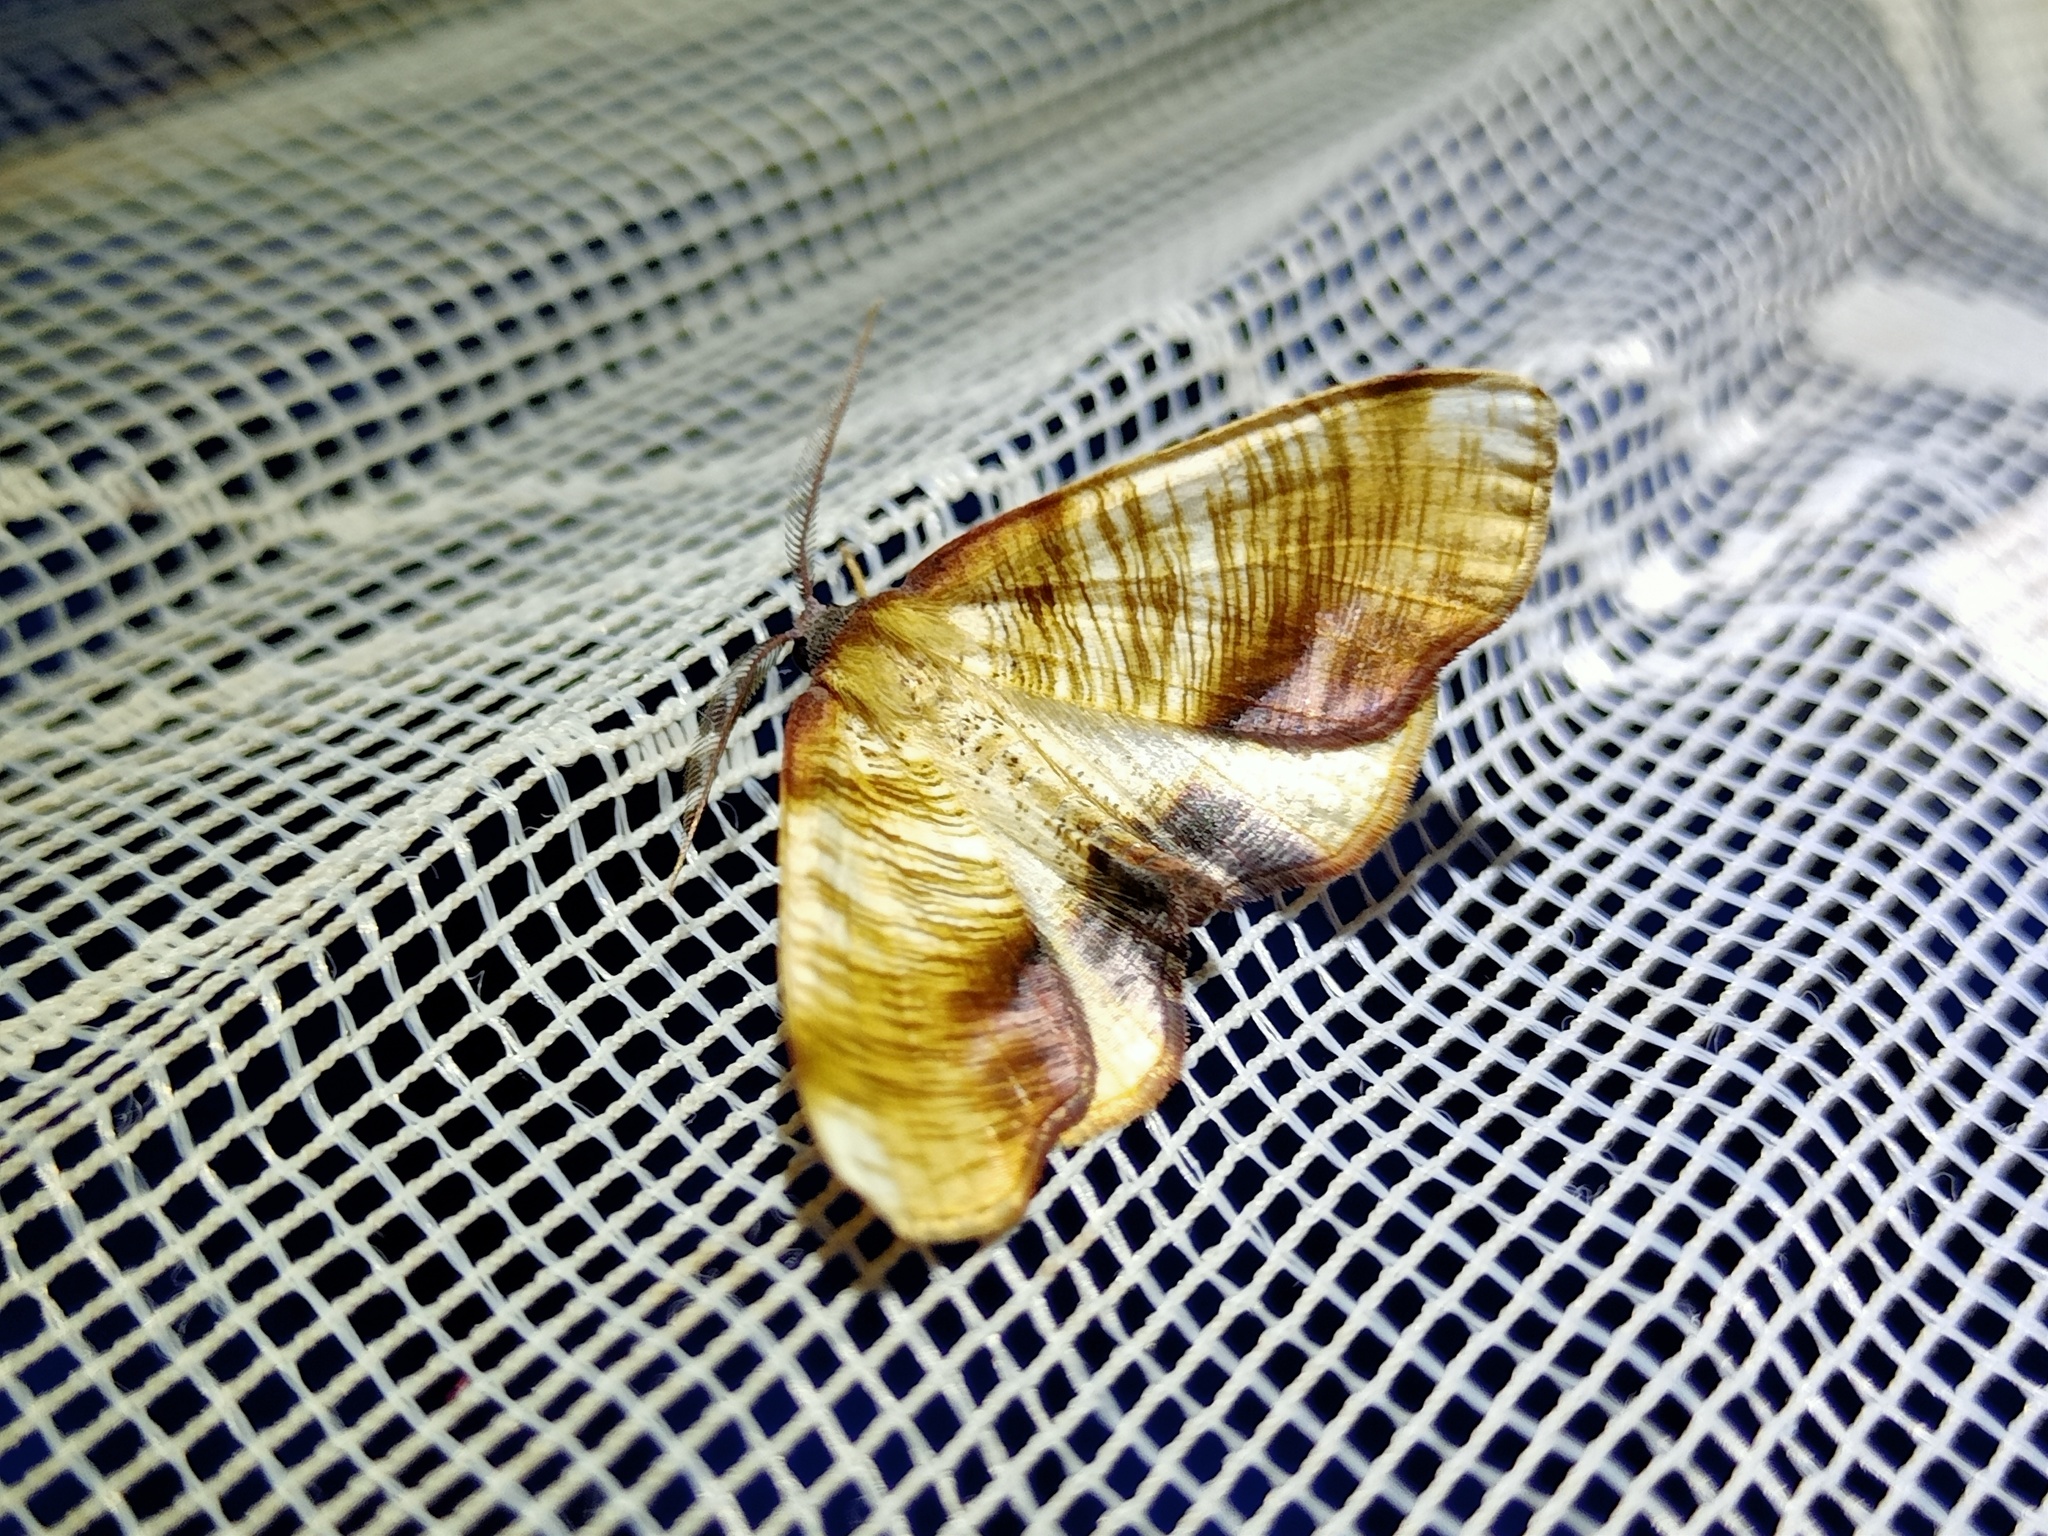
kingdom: Animalia
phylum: Arthropoda
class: Insecta
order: Lepidoptera
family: Geometridae
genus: Plagodis
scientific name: Plagodis dolabraria
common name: Scorched wing
